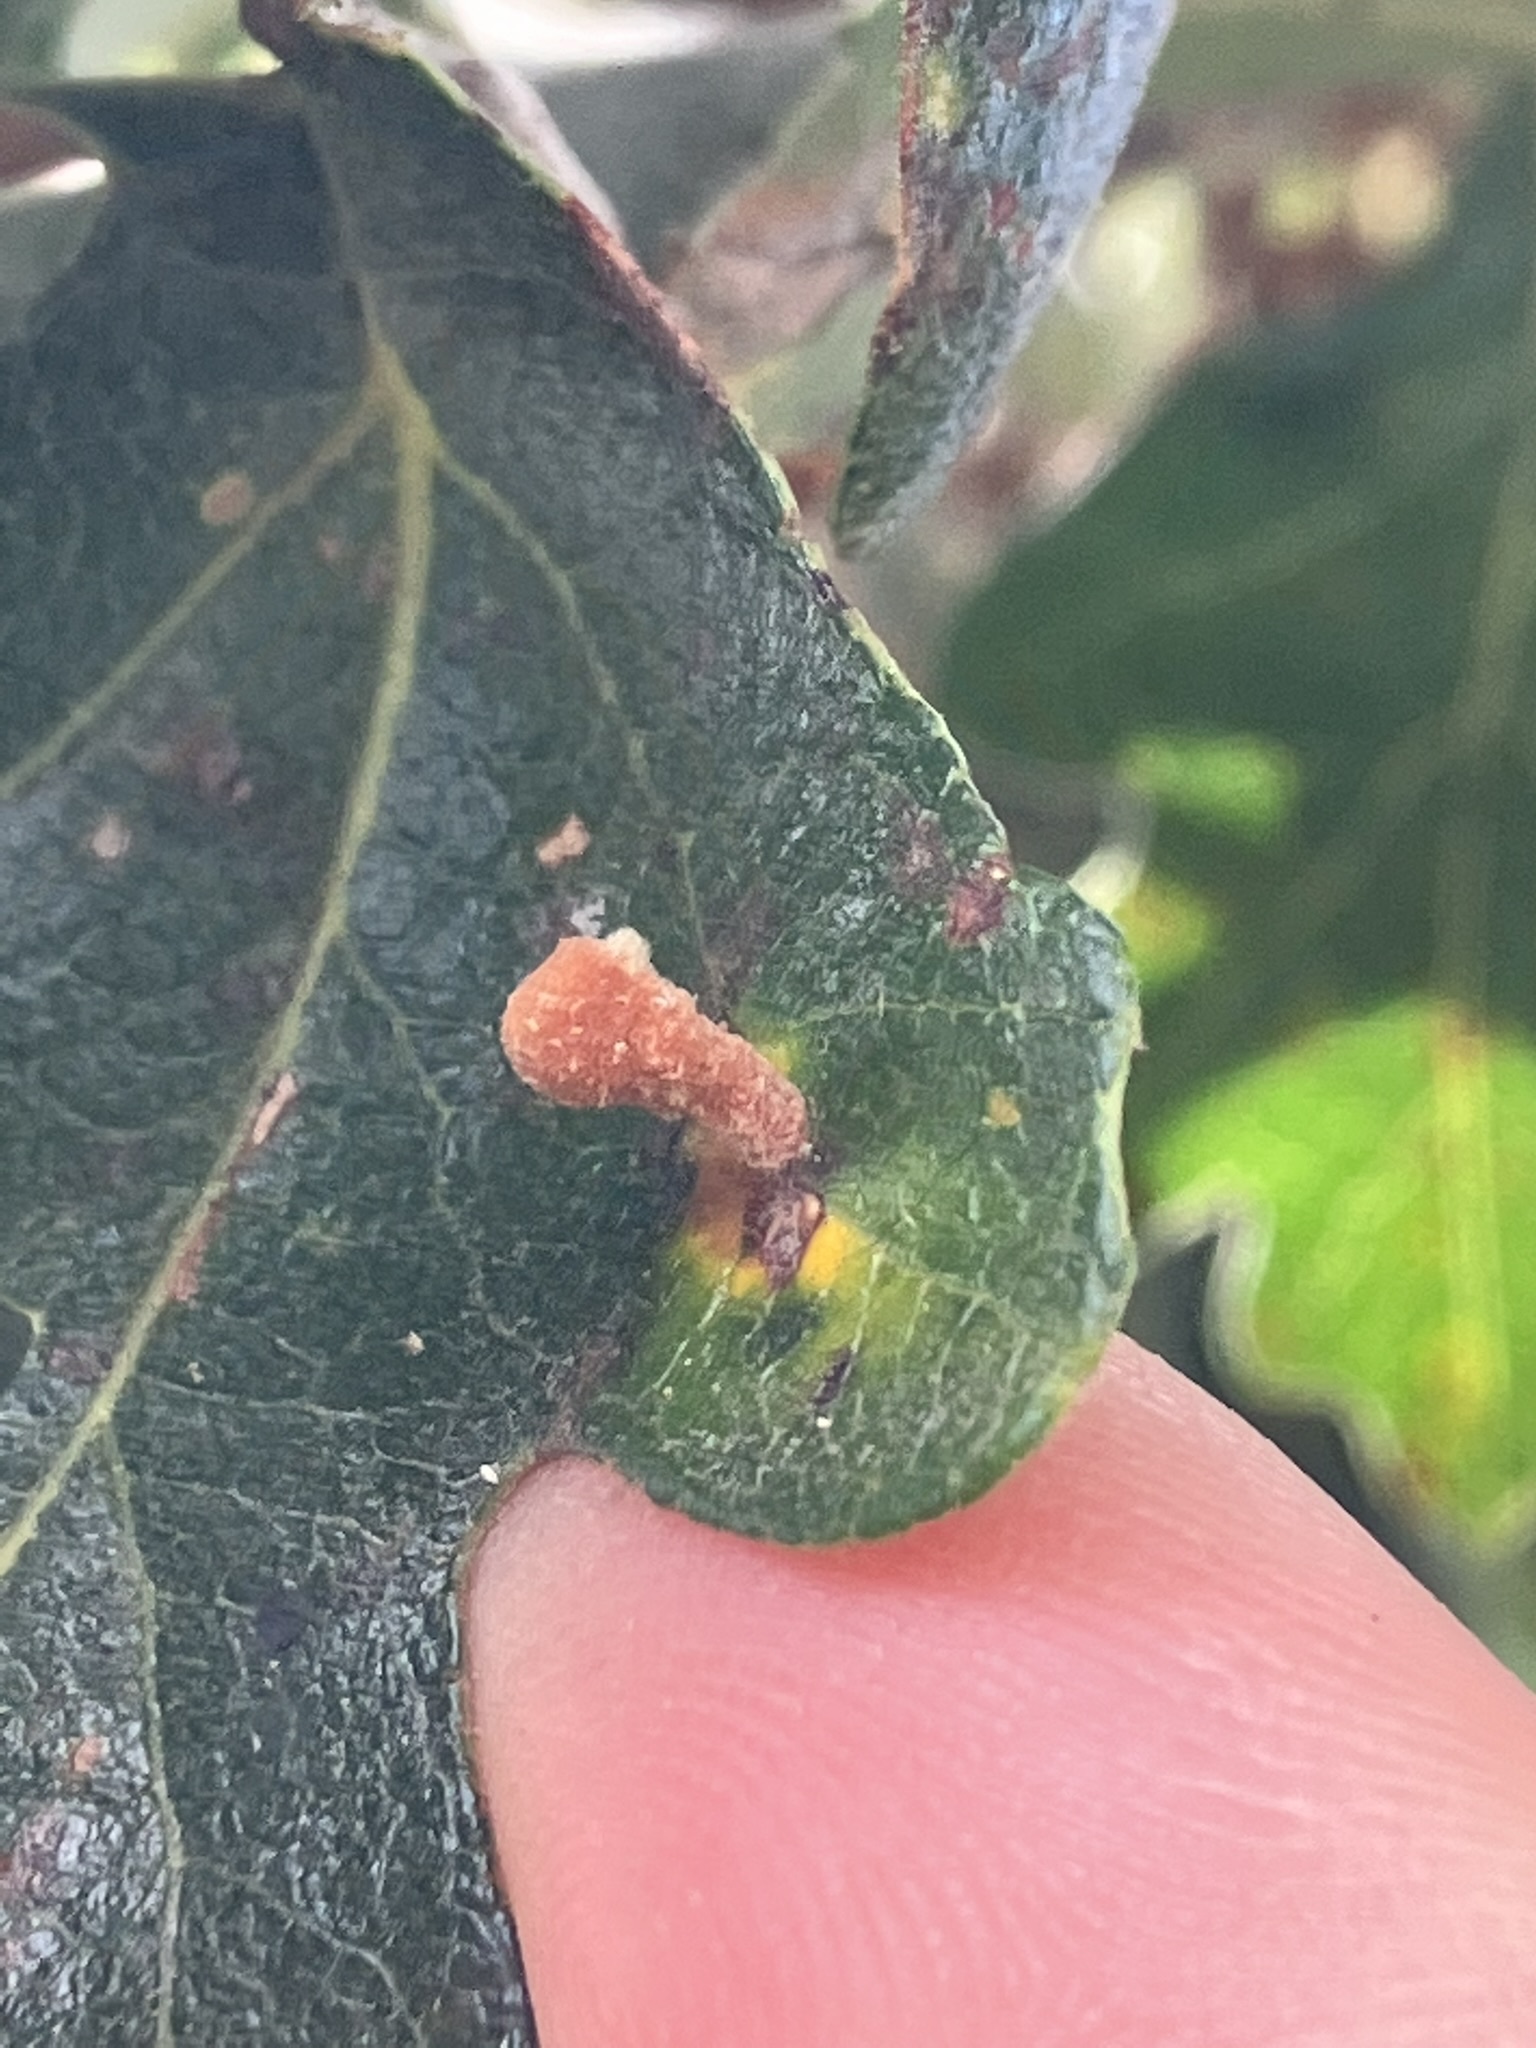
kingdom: Animalia
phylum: Arthropoda
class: Insecta
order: Hymenoptera
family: Cynipidae
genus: Trigonaspis
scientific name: Trigonaspis
